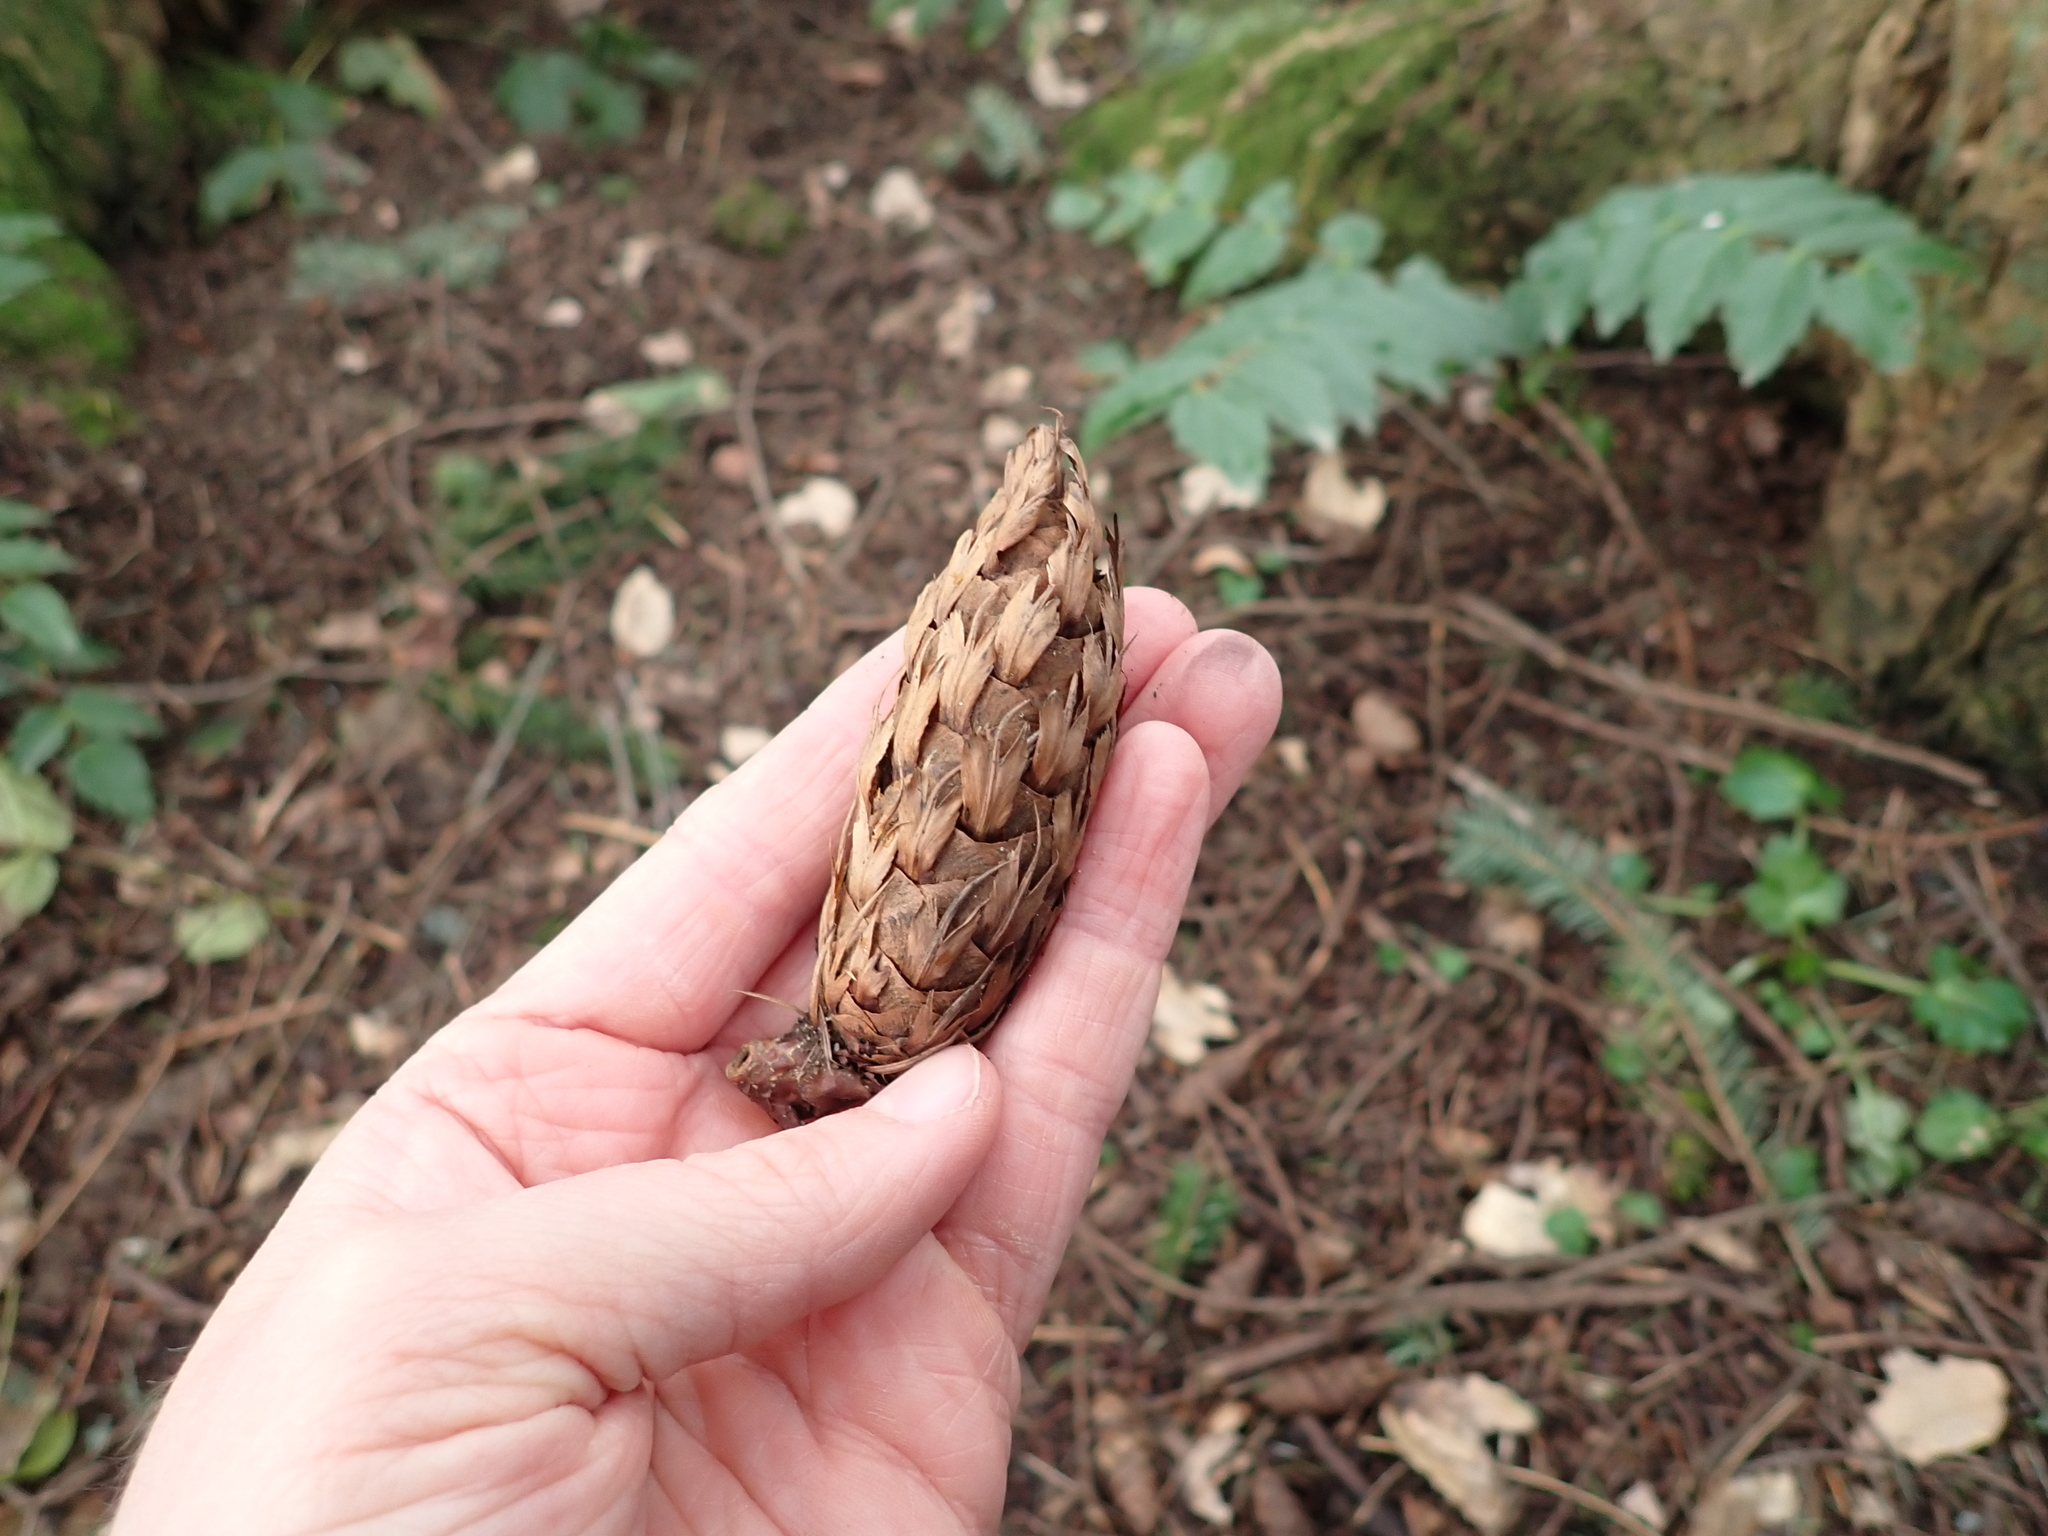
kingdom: Plantae
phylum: Tracheophyta
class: Pinopsida
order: Pinales
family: Pinaceae
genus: Pseudotsuga
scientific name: Pseudotsuga menziesii
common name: Douglas fir
